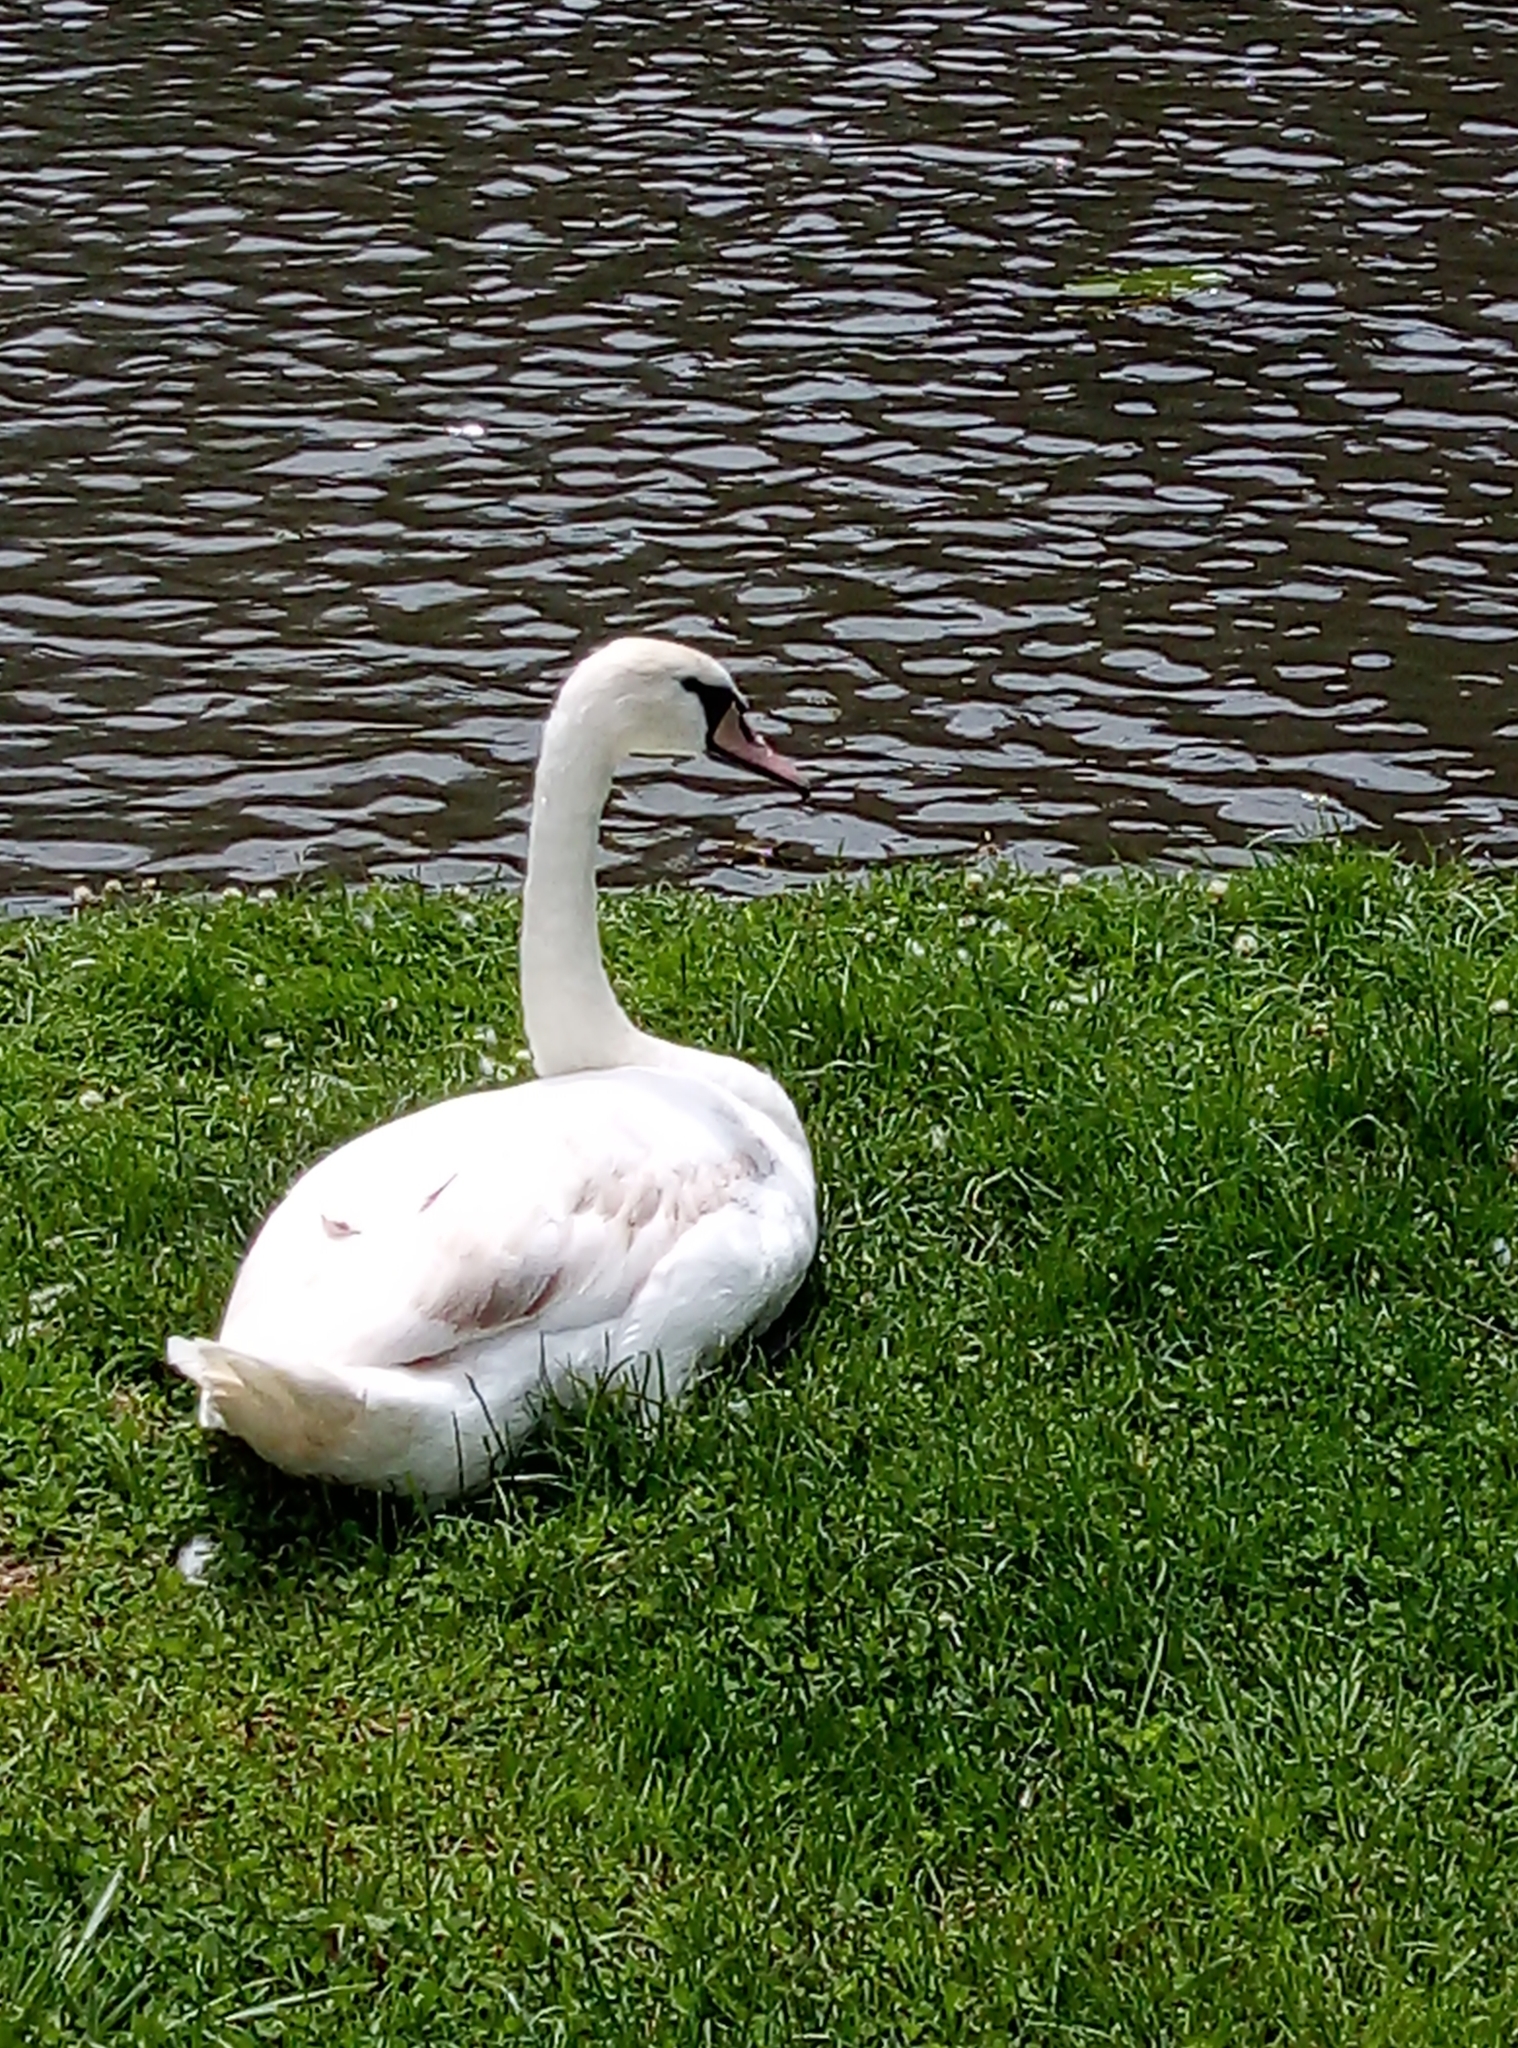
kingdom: Animalia
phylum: Chordata
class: Aves
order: Anseriformes
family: Anatidae
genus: Cygnus
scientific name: Cygnus olor
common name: Mute swan
